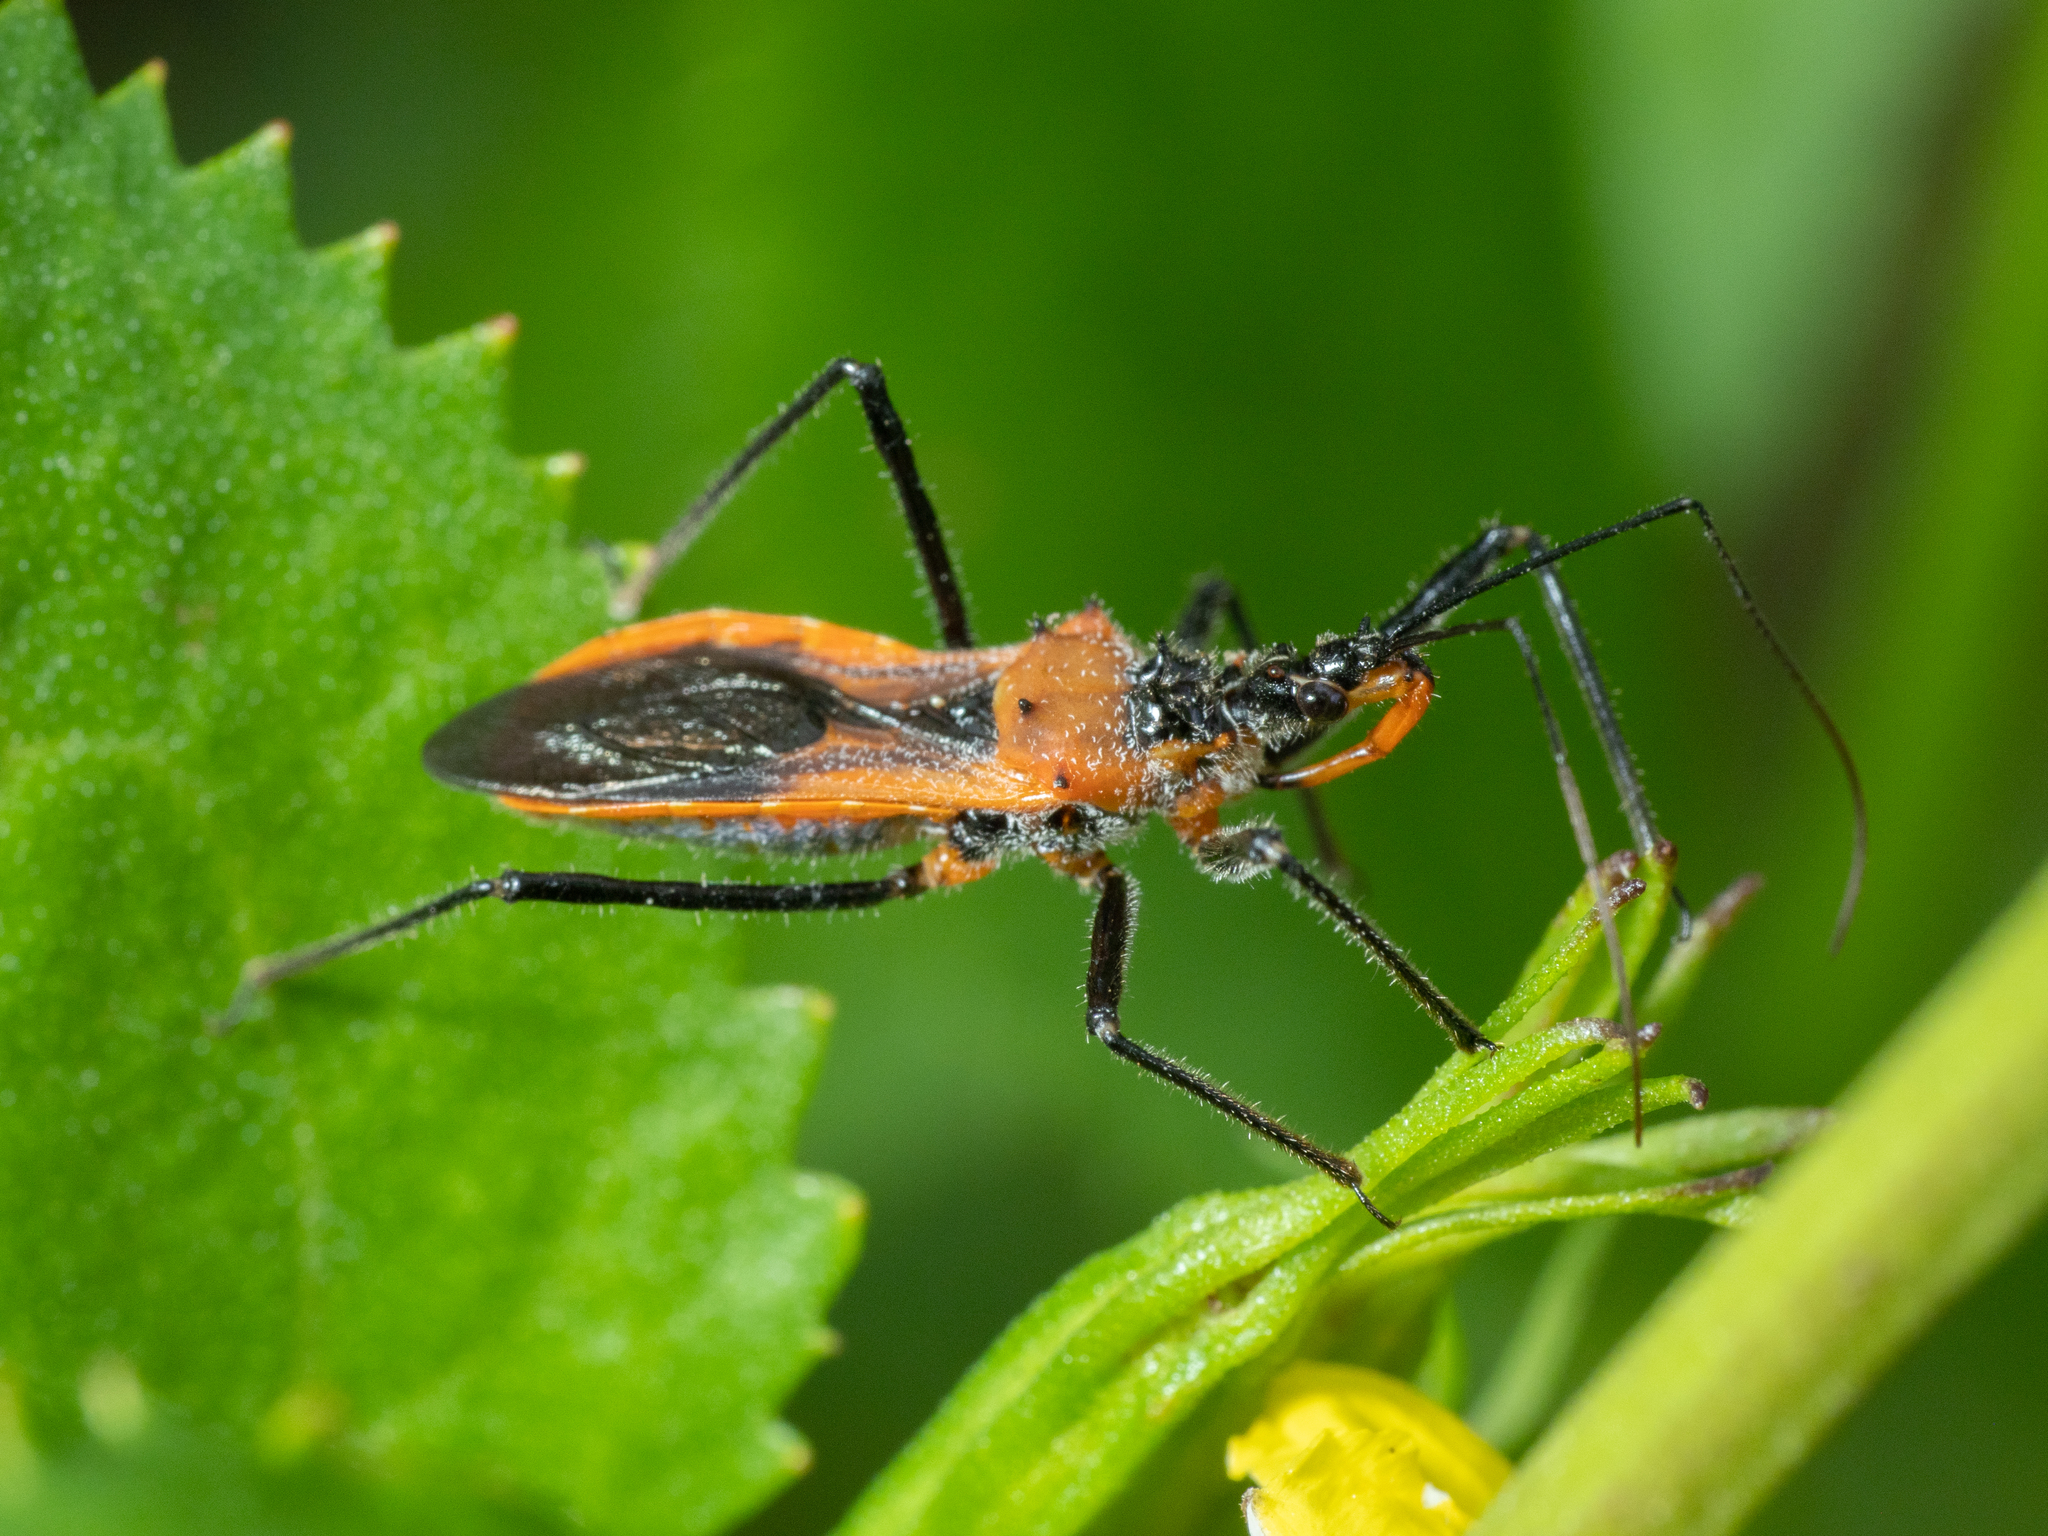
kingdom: Animalia
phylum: Arthropoda
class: Insecta
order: Hemiptera
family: Reduviidae
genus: Gminatus
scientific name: Gminatus australis
